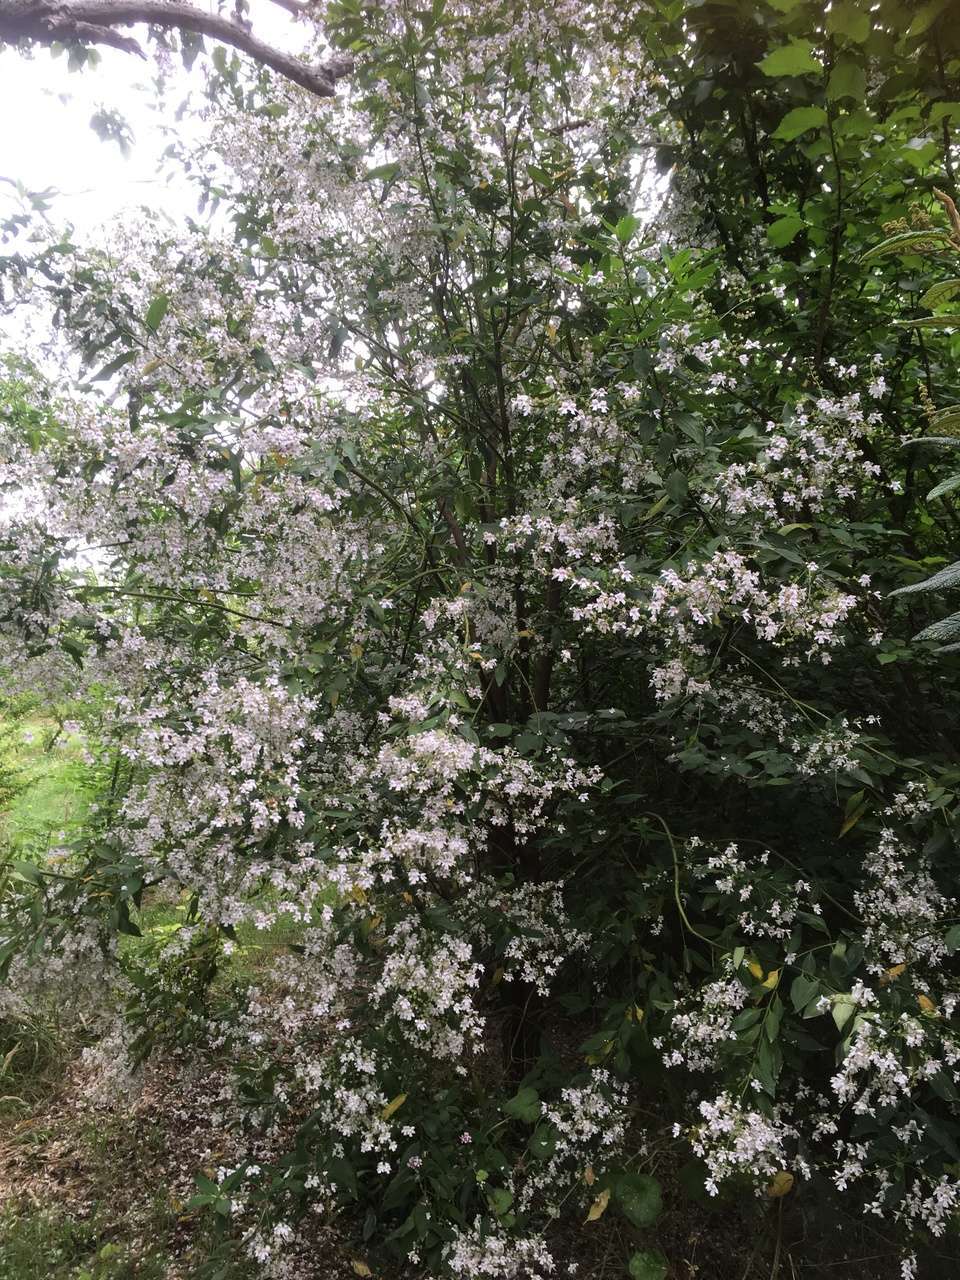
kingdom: Plantae
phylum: Tracheophyta
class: Magnoliopsida
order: Lamiales
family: Lamiaceae
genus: Prostanthera
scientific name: Prostanthera lasianthos
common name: Mountain-lilac
